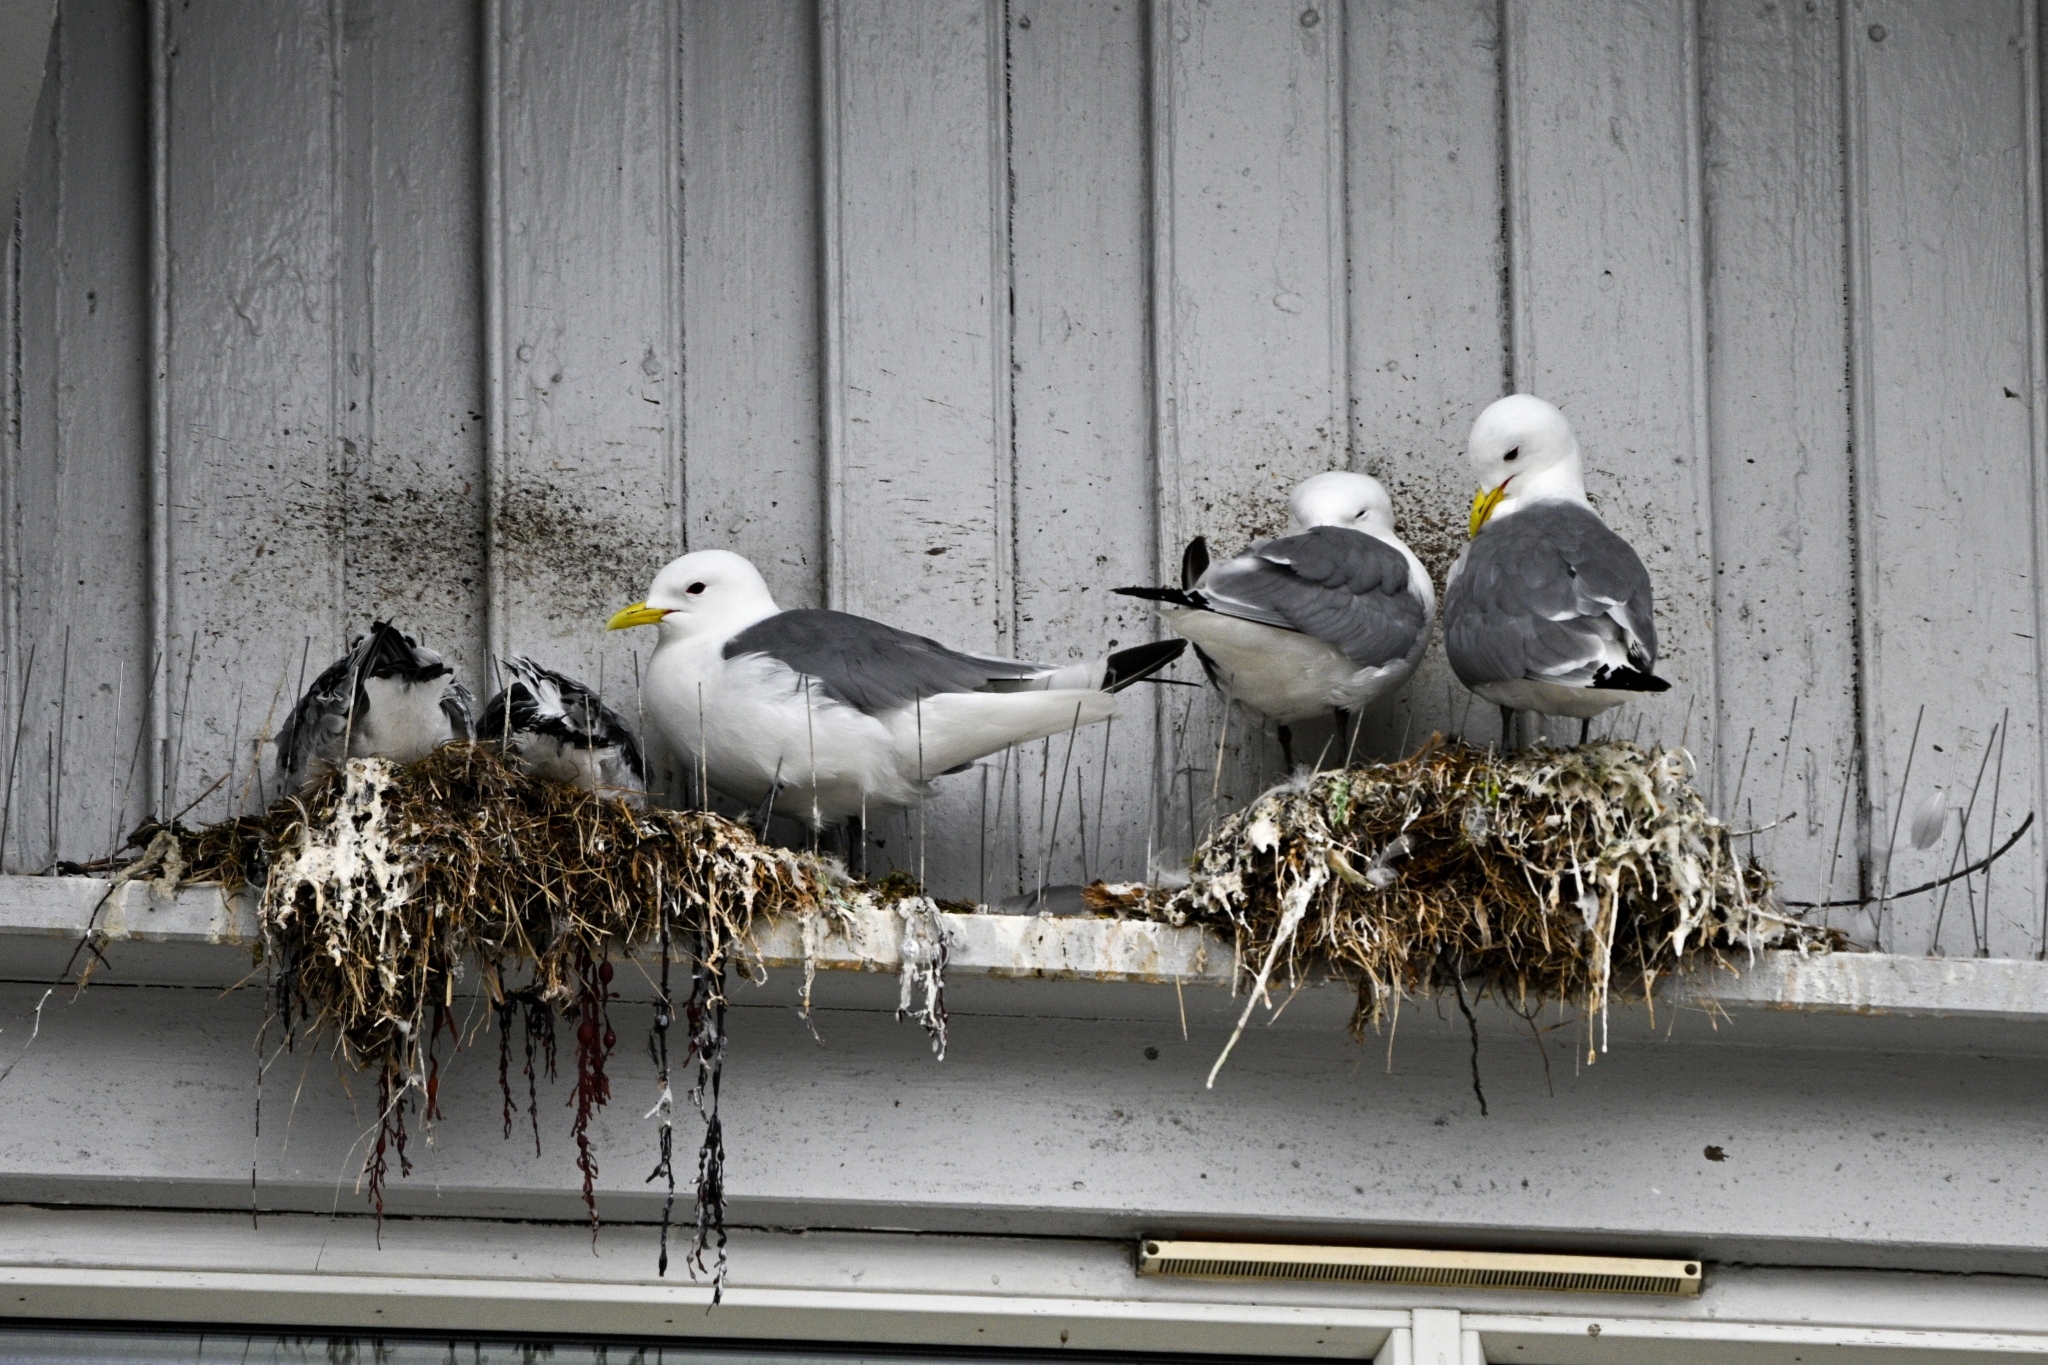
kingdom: Animalia
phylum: Chordata
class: Aves
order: Charadriiformes
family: Laridae
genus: Rissa
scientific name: Rissa tridactyla
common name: Black-legged kittiwake
